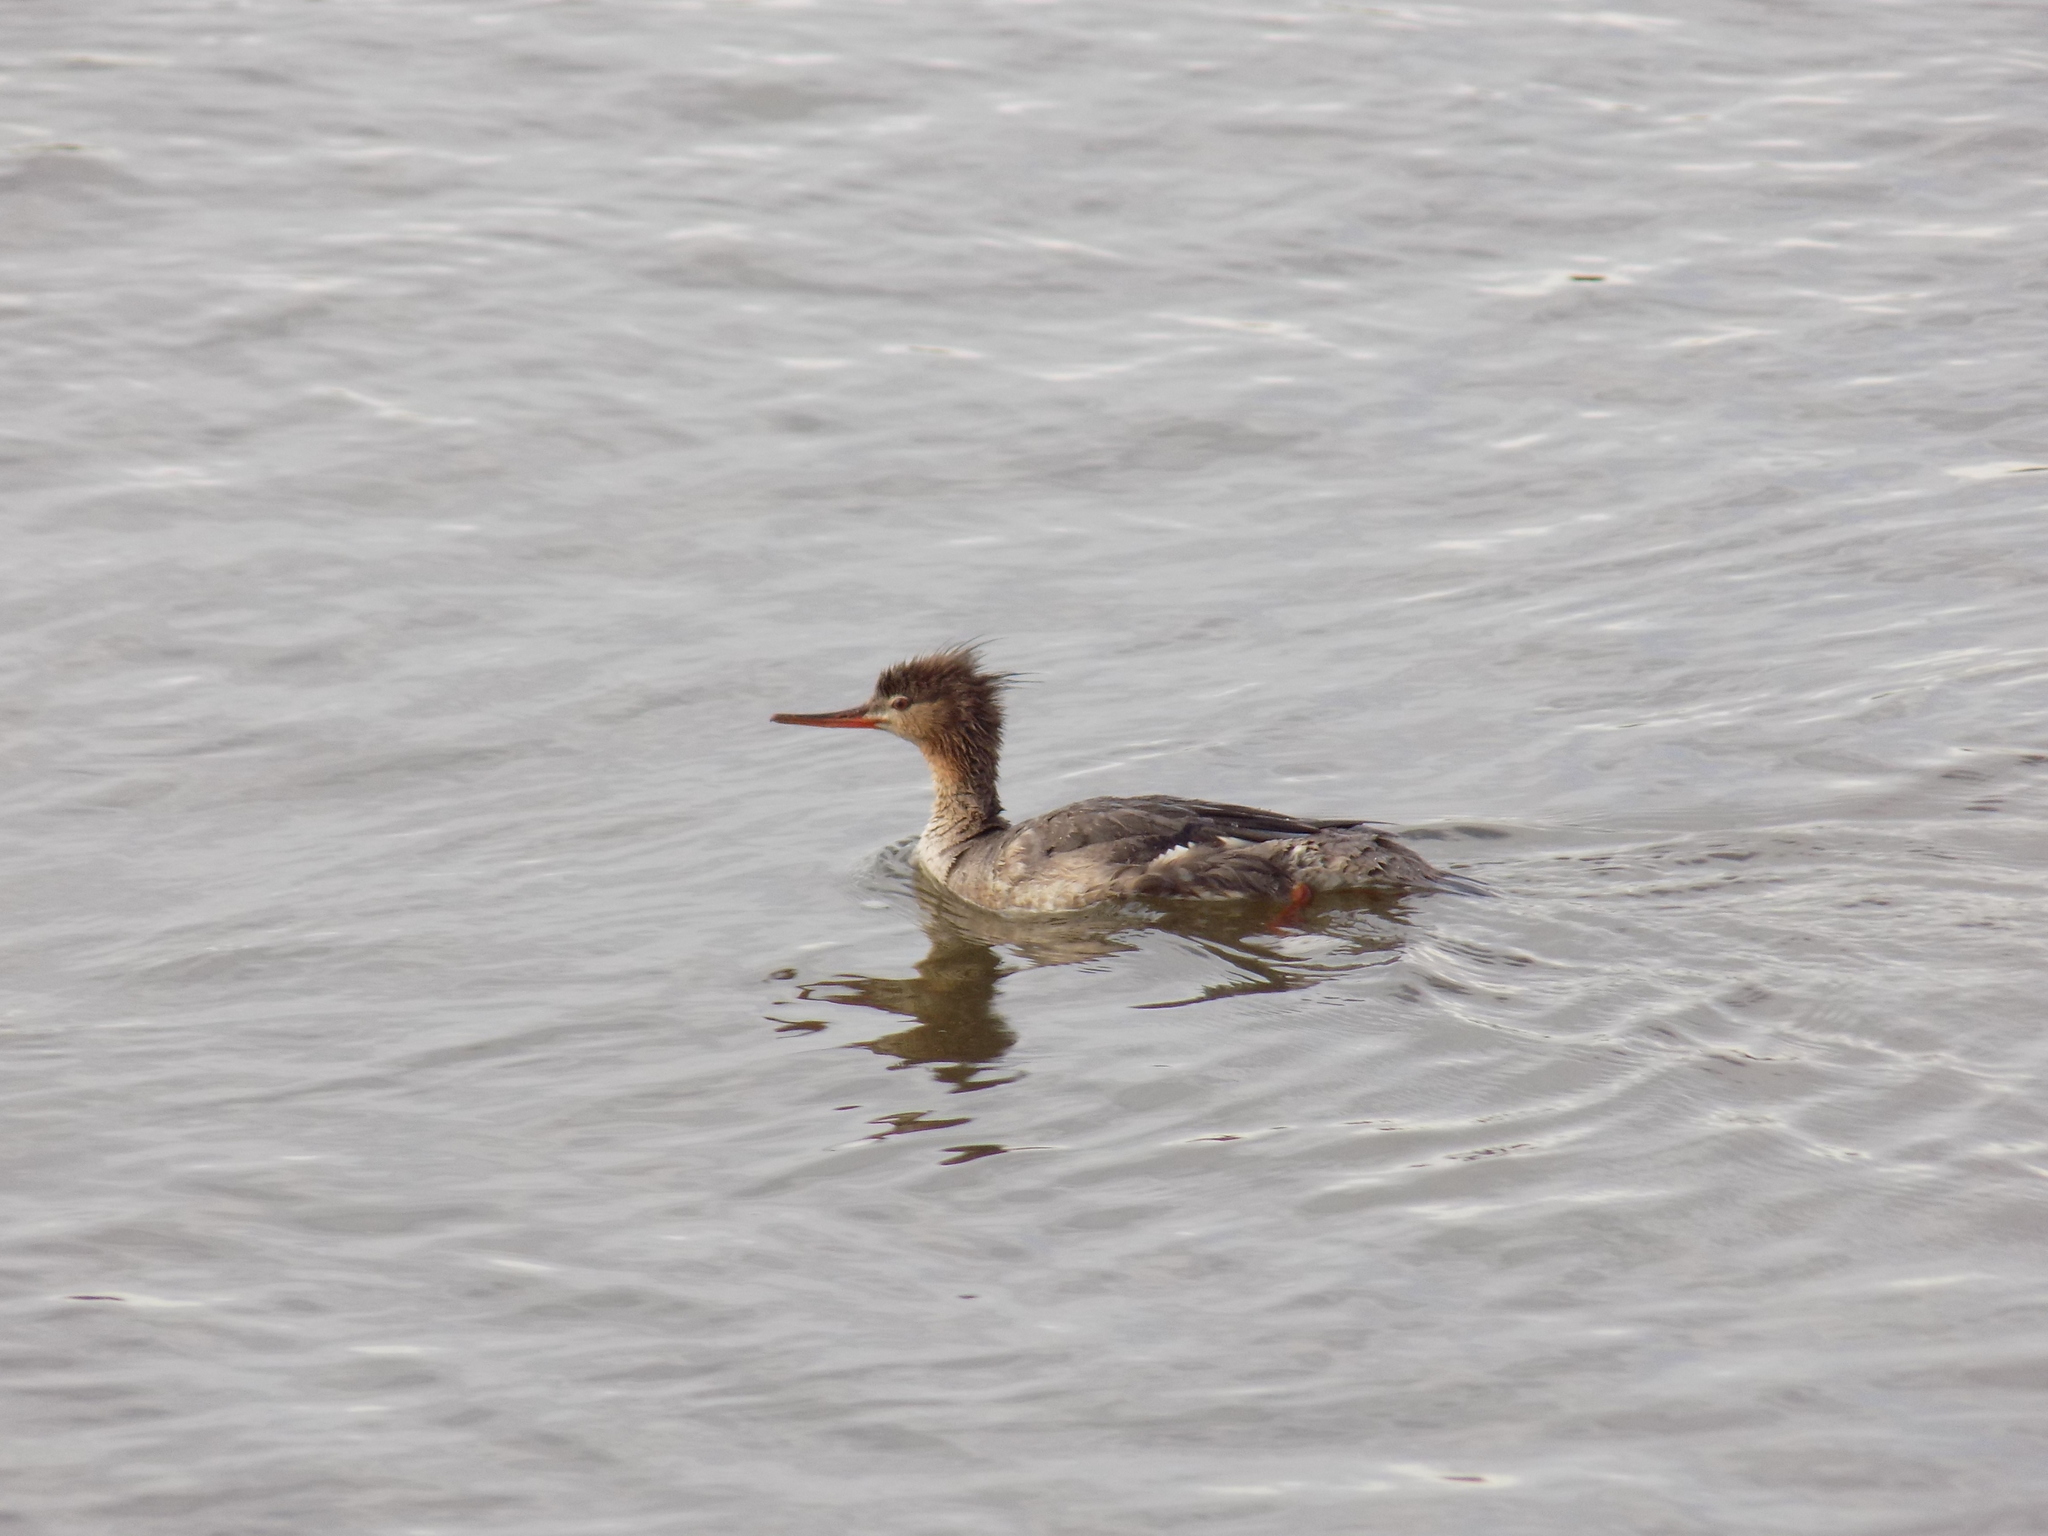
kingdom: Animalia
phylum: Chordata
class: Aves
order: Anseriformes
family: Anatidae
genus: Mergus
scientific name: Mergus serrator
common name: Red-breasted merganser
